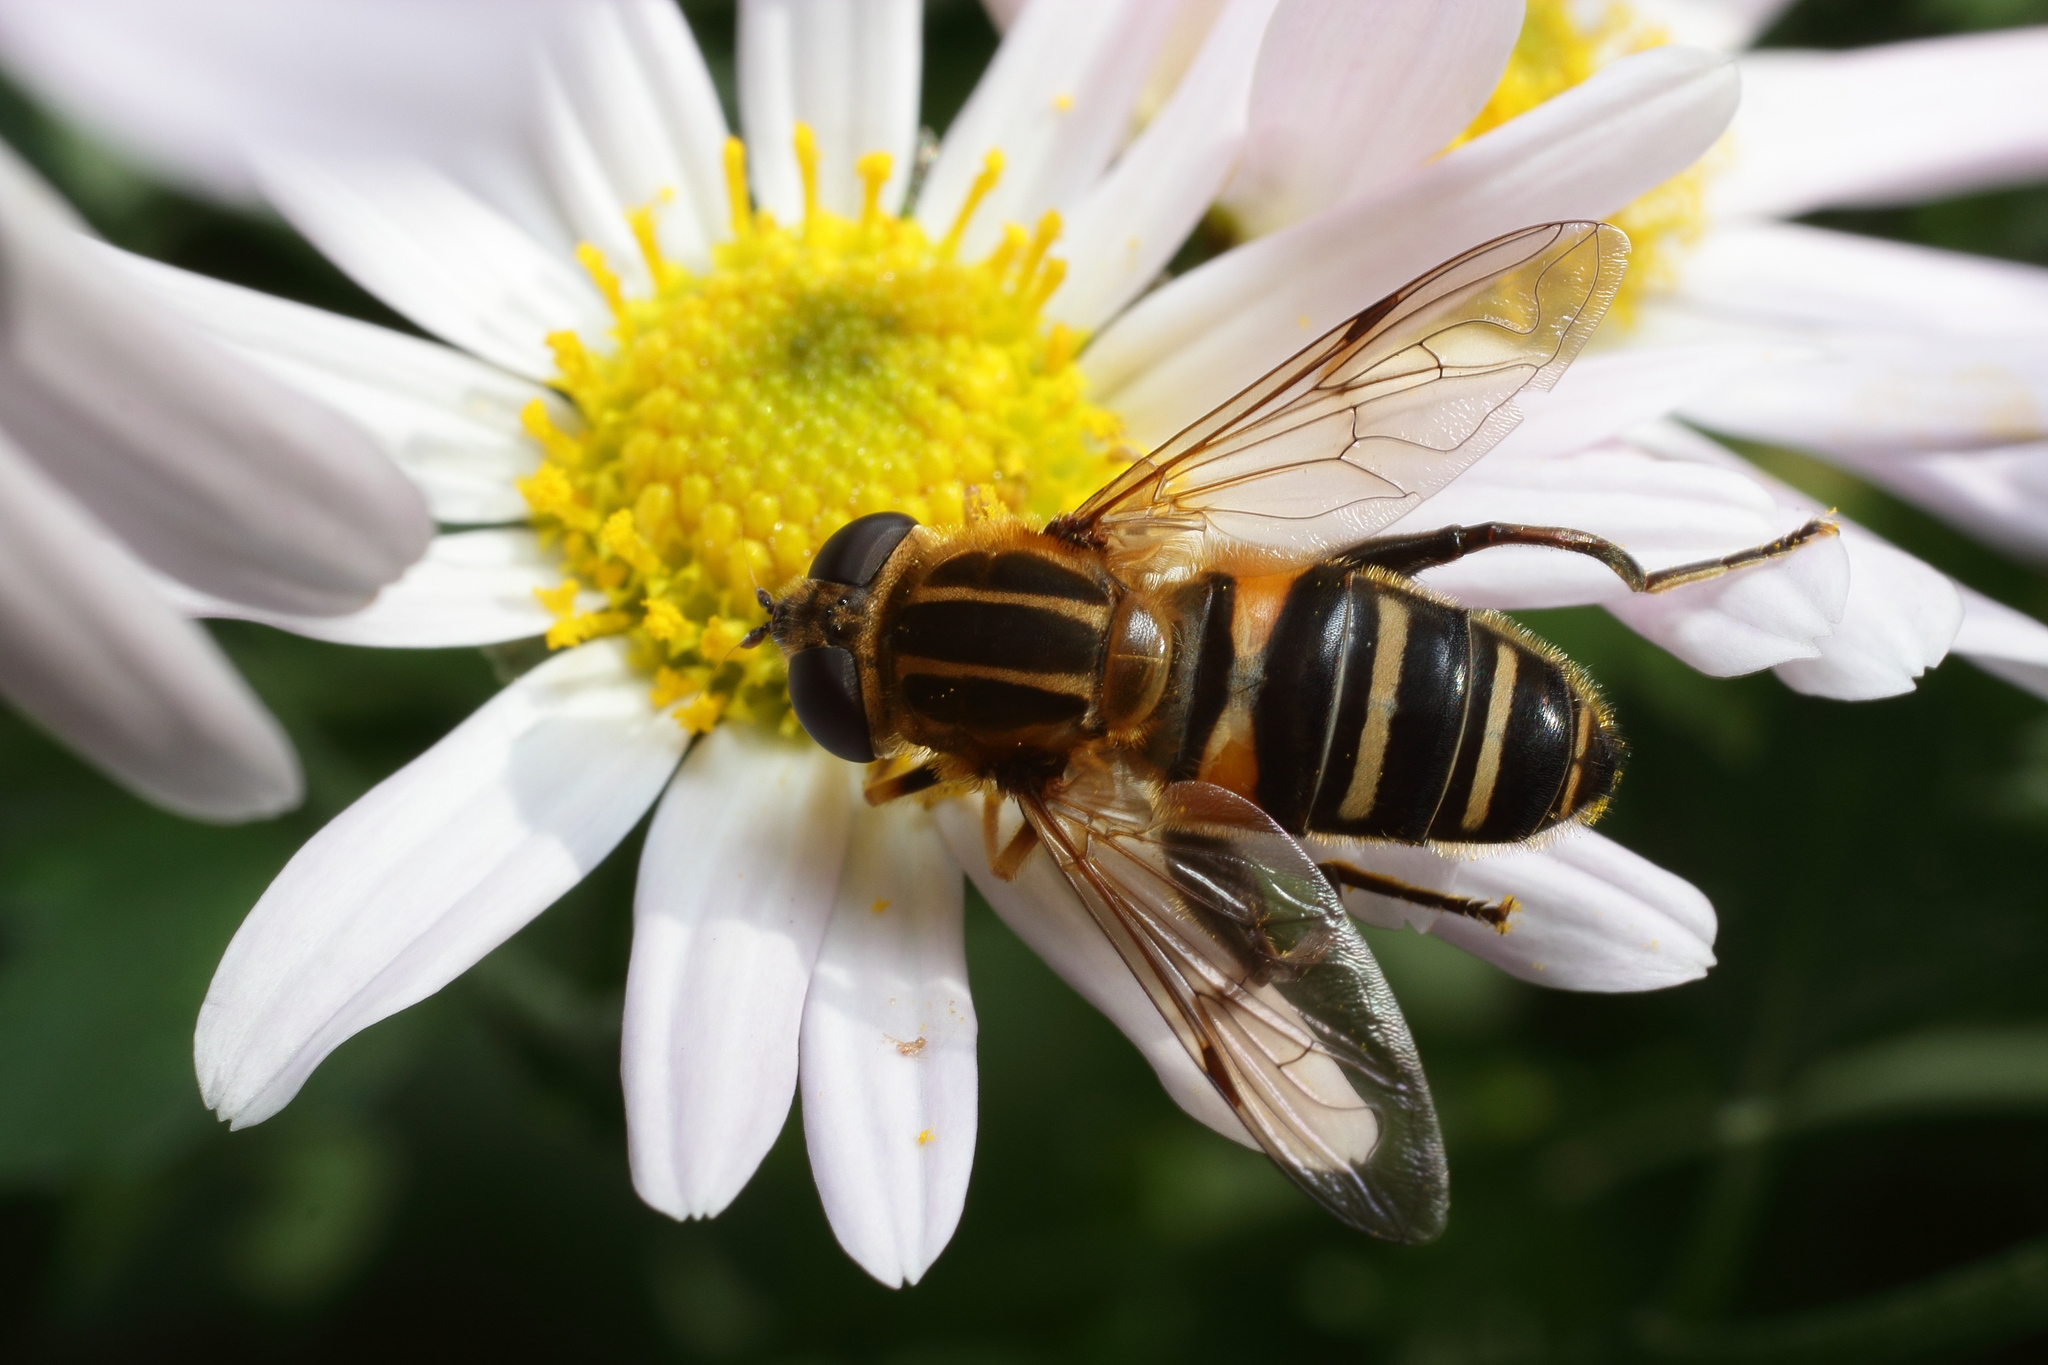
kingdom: Animalia
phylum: Arthropoda
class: Insecta
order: Diptera
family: Syrphidae
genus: Helophilus
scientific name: Helophilus eristaloideus
